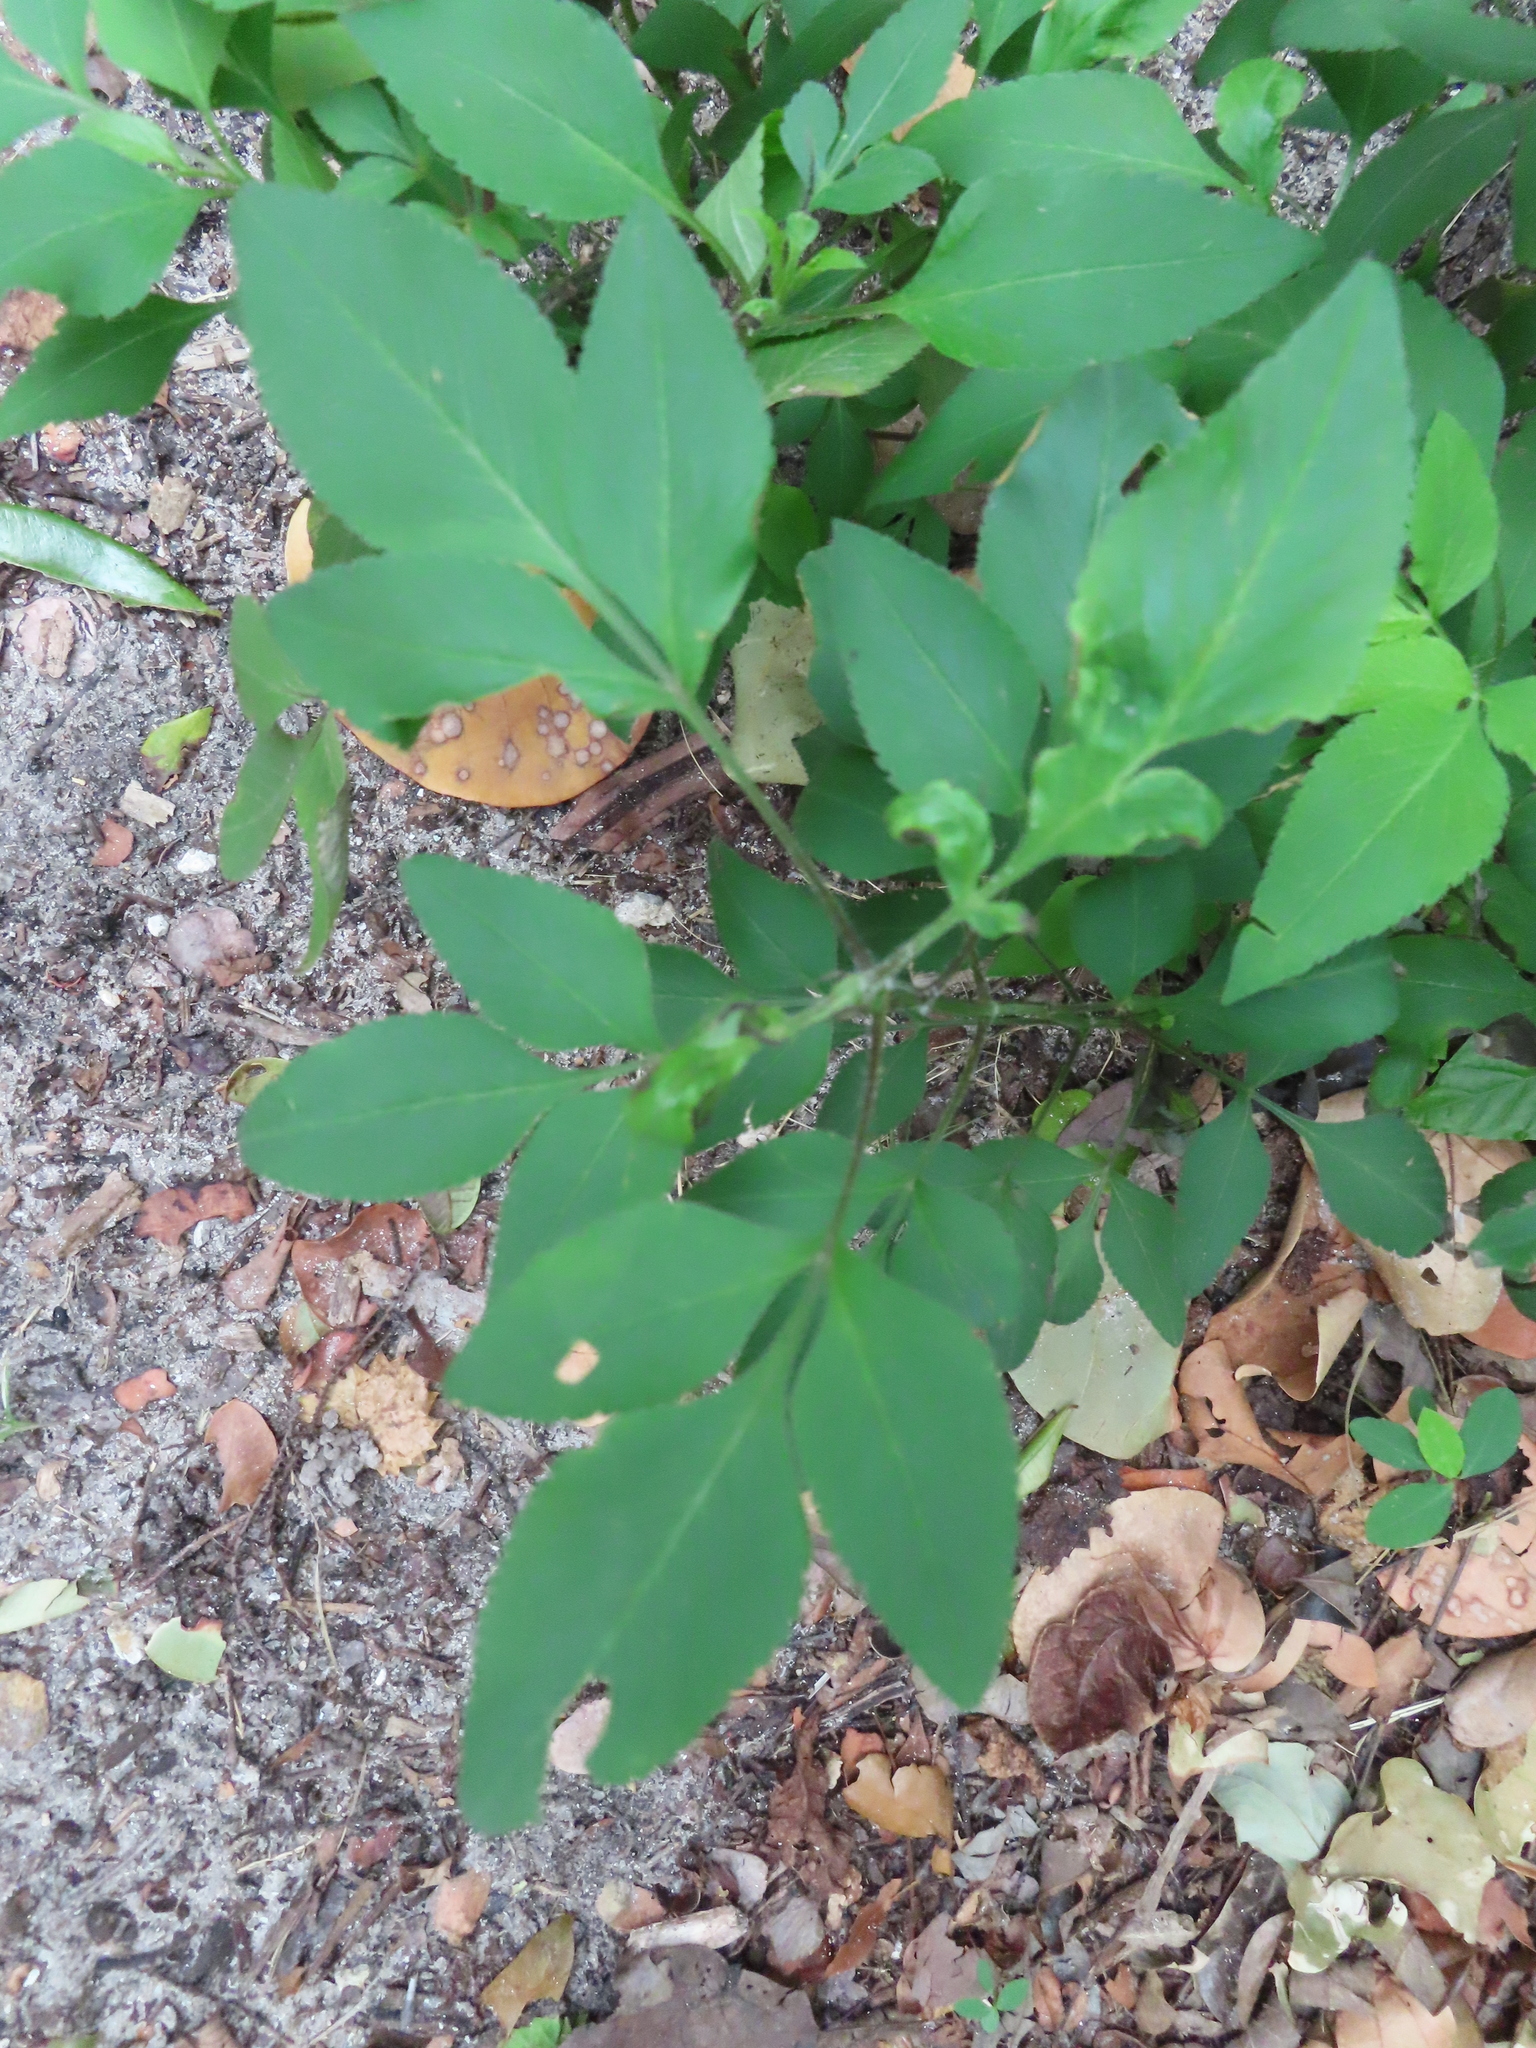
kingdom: Plantae
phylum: Tracheophyta
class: Magnoliopsida
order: Asterales
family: Asteraceae
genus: Bidens
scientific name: Bidens alba
